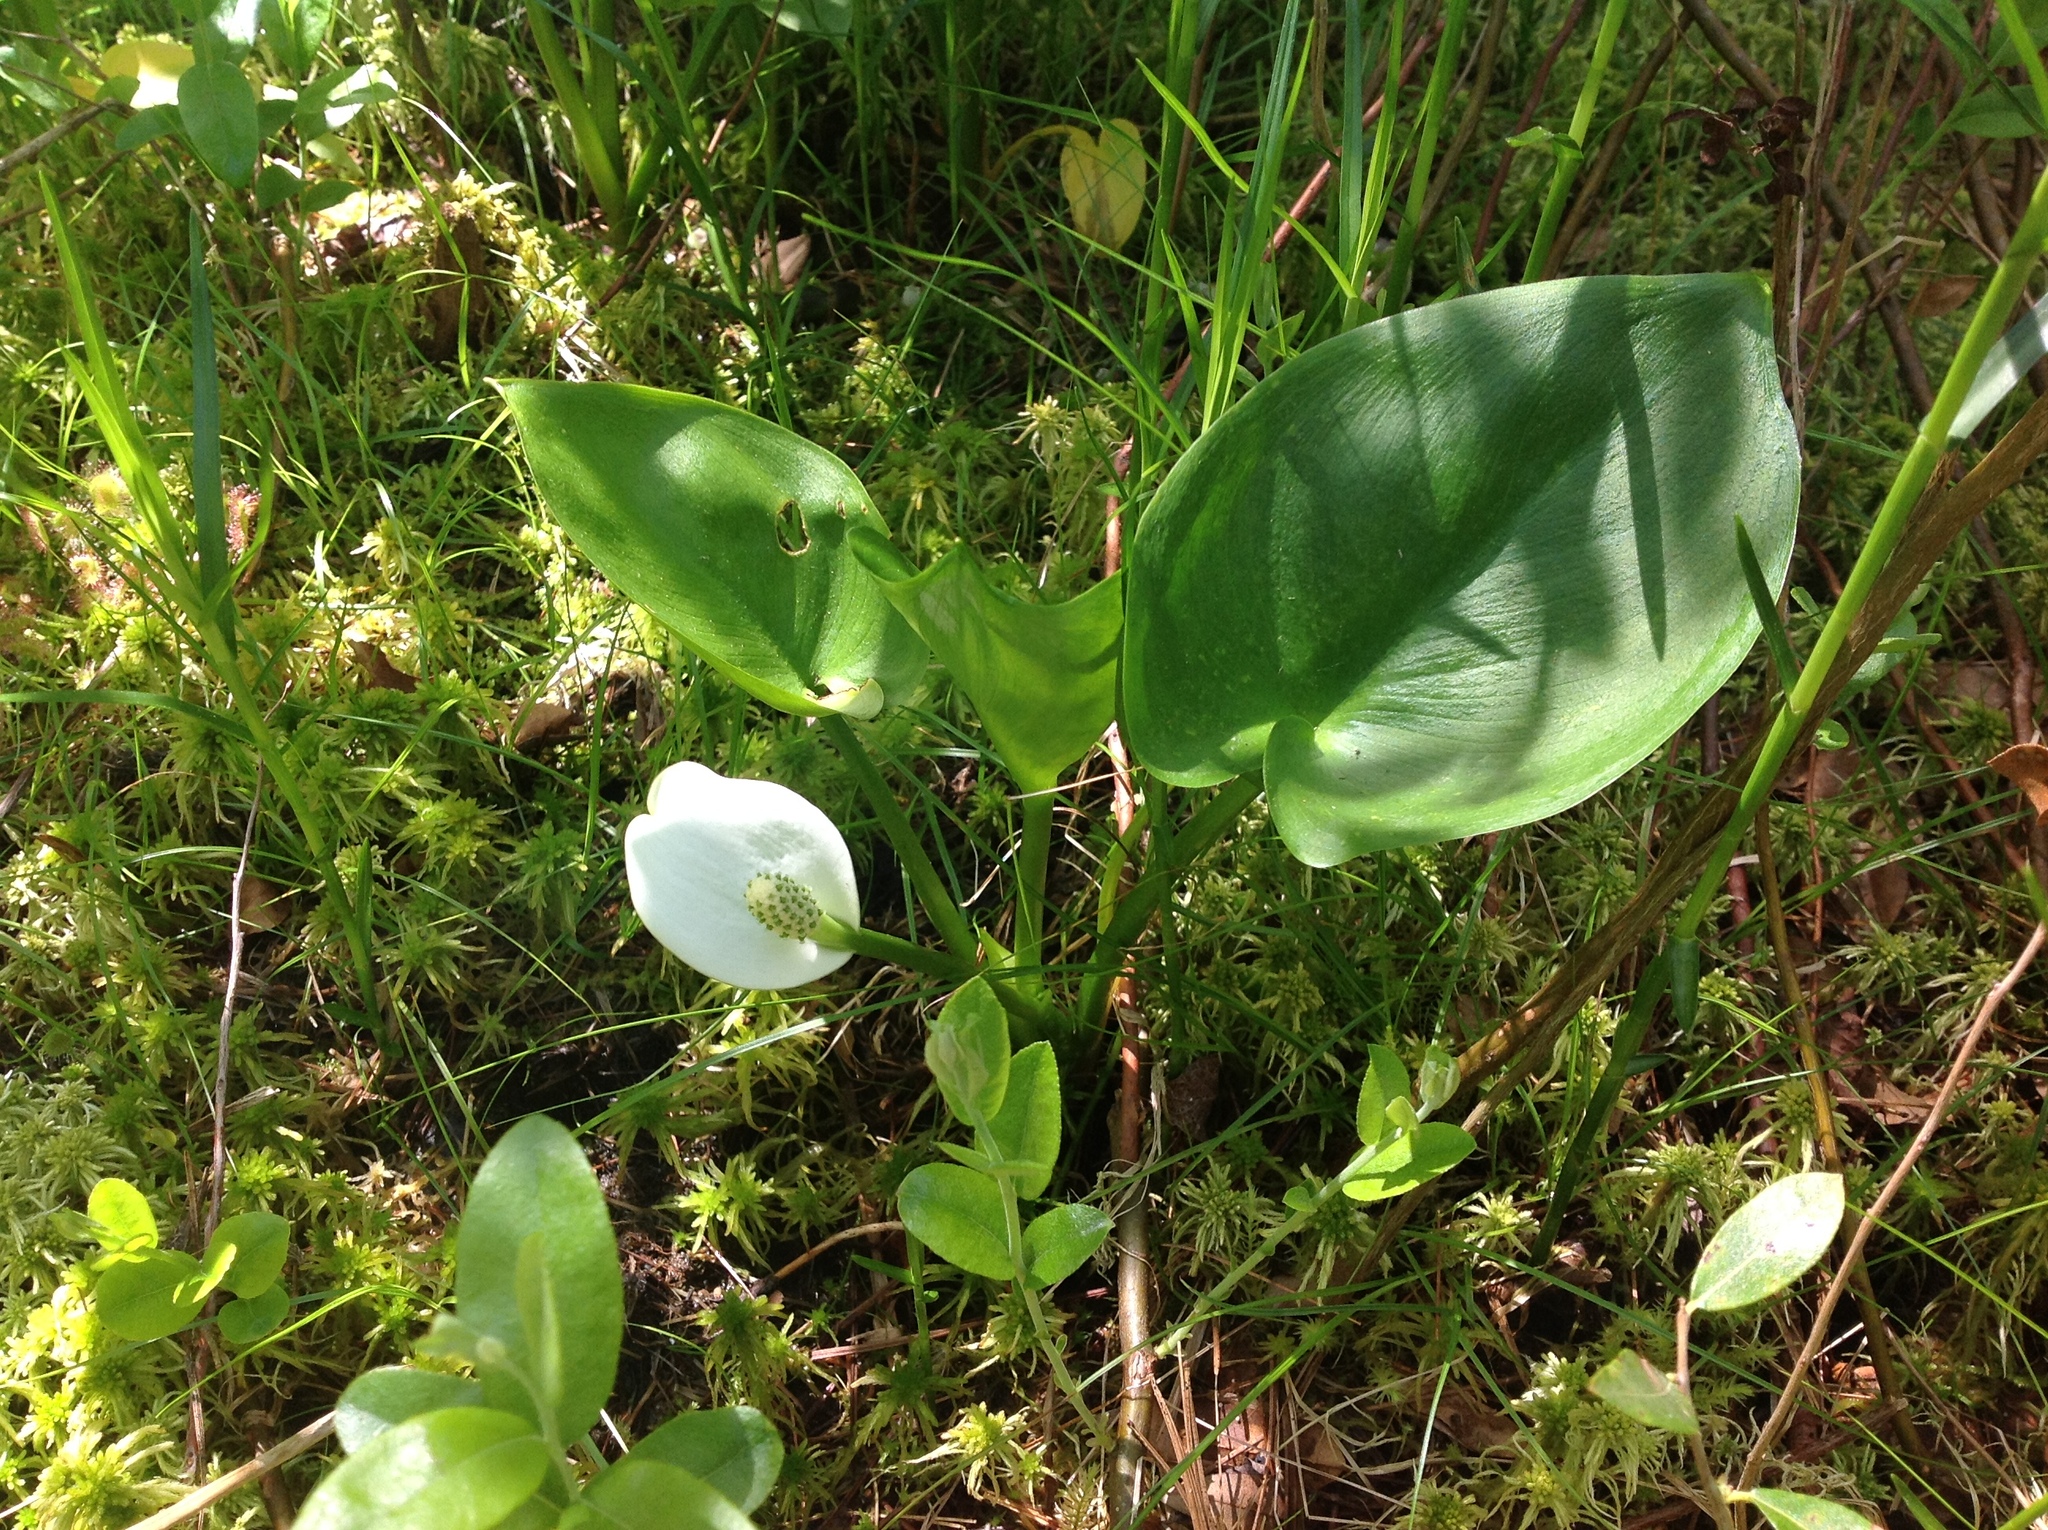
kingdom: Plantae
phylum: Tracheophyta
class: Liliopsida
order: Alismatales
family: Araceae
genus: Calla
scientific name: Calla palustris
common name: Bog arum
